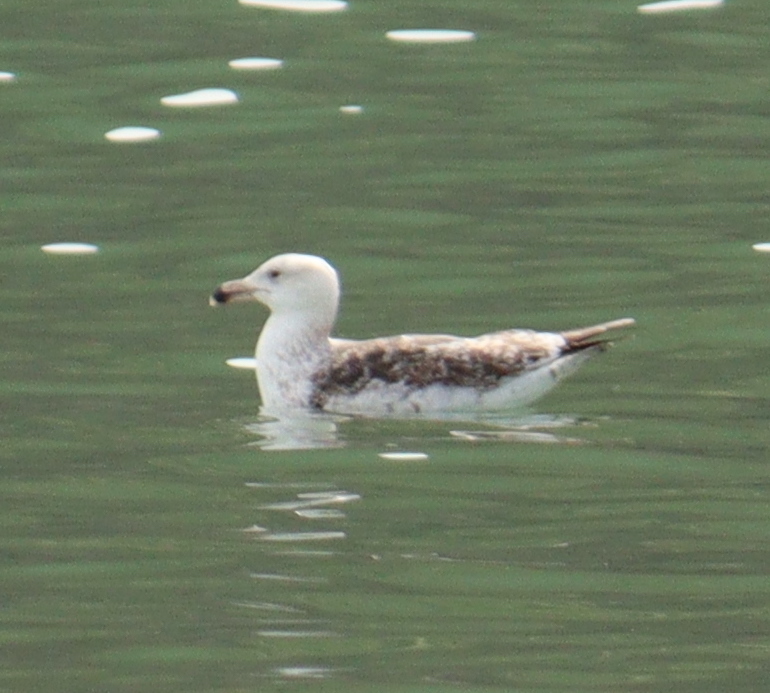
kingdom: Animalia
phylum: Chordata
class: Aves
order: Charadriiformes
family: Laridae
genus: Larus
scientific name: Larus marinus
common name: Great black-backed gull
